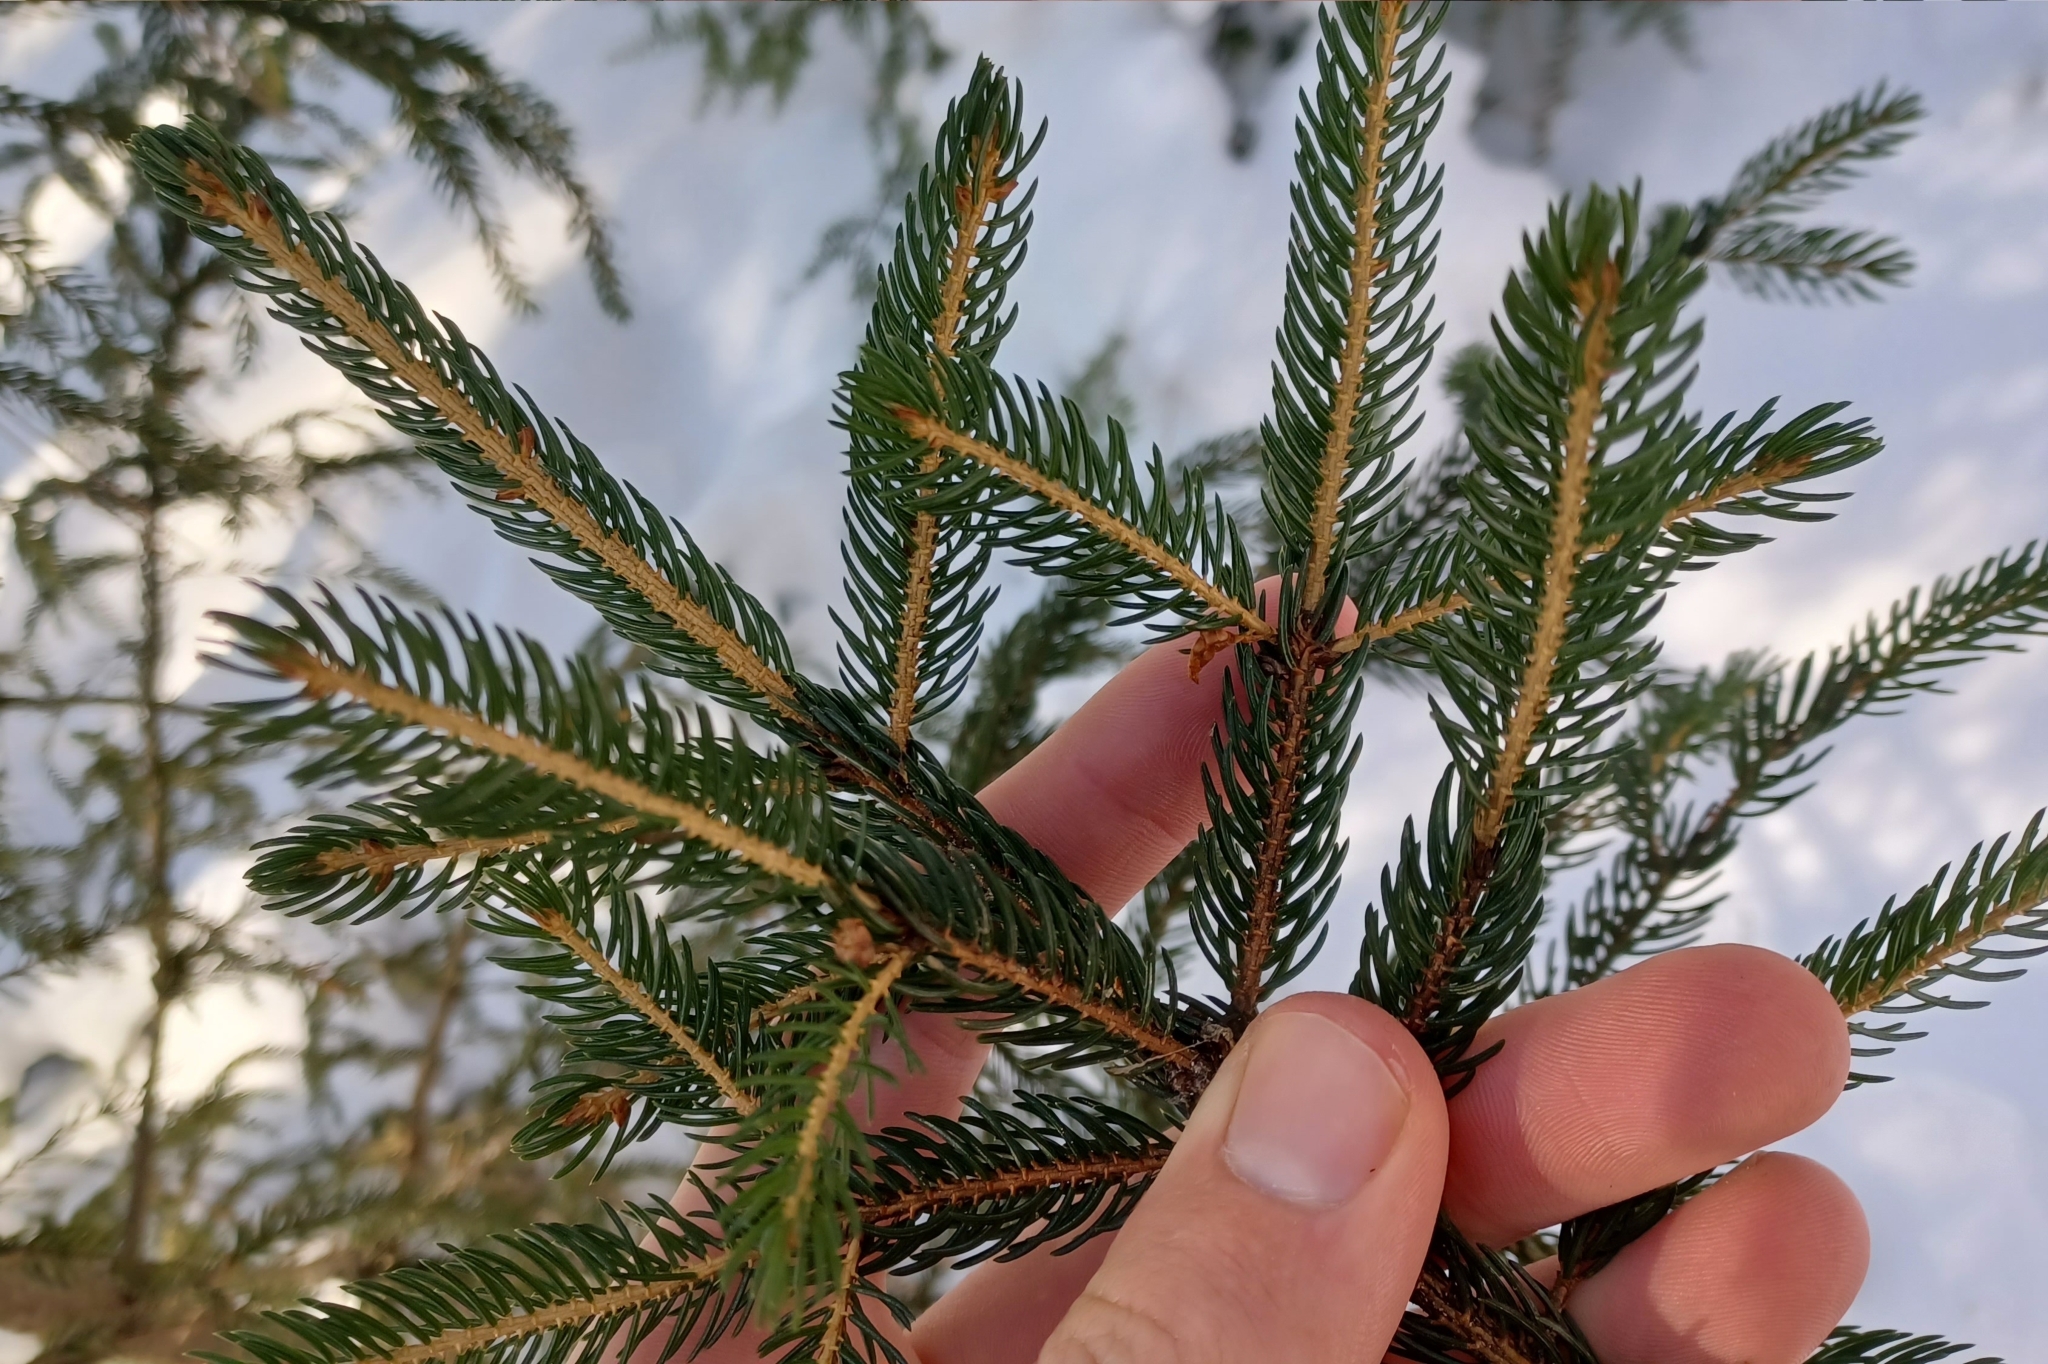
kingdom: Plantae
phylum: Tracheophyta
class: Pinopsida
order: Pinales
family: Pinaceae
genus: Picea
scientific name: Picea rubens
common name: Red spruce
